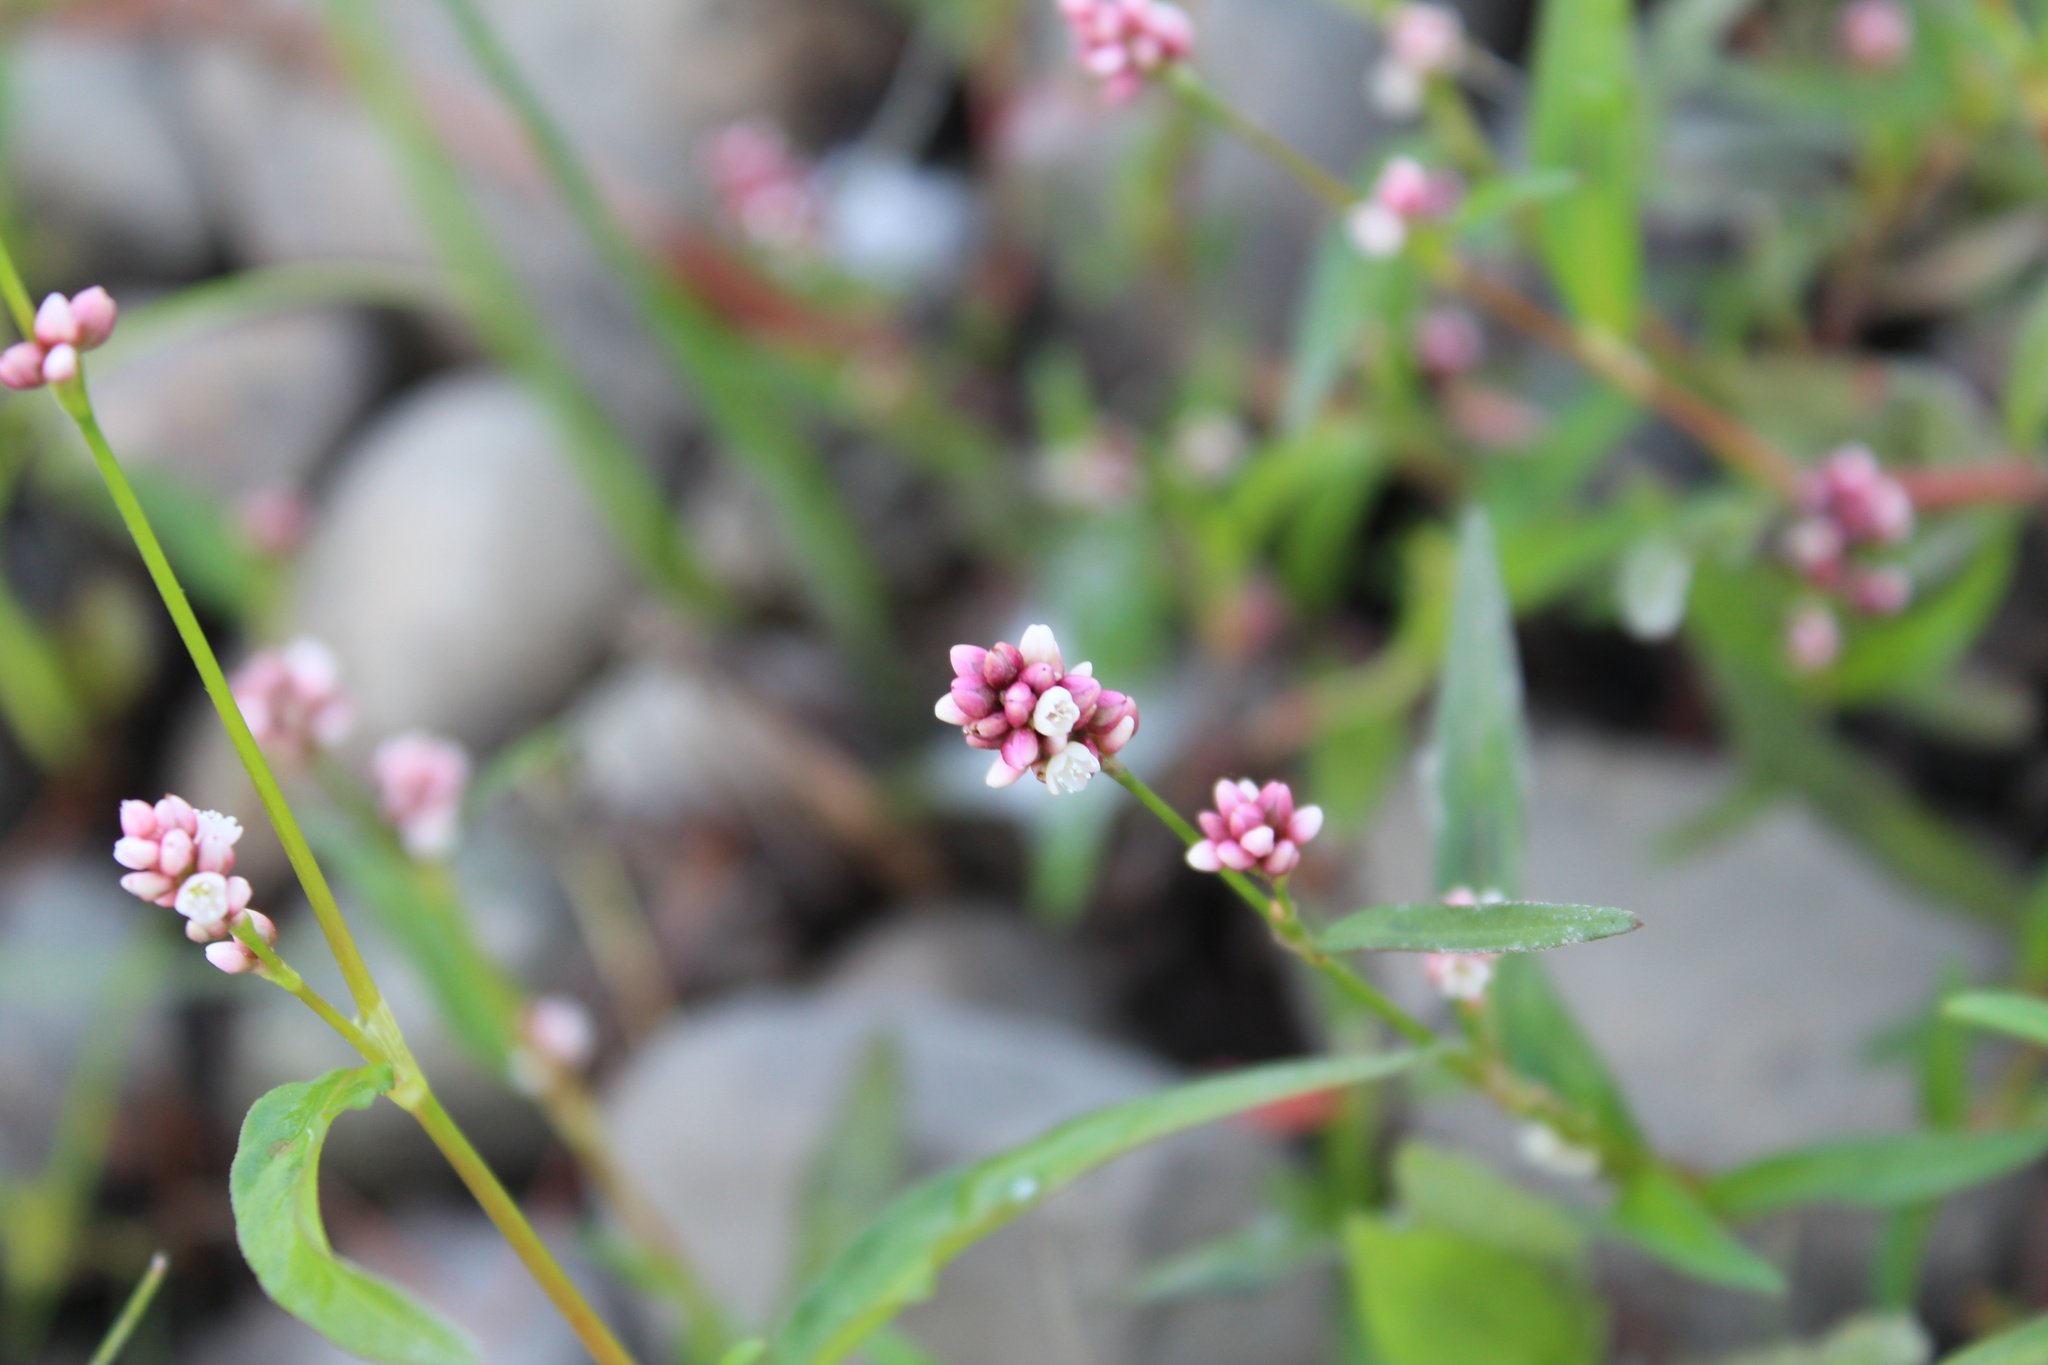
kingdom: Plantae
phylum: Tracheophyta
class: Magnoliopsida
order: Caryophyllales
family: Polygonaceae
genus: Persicaria
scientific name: Persicaria maculosa
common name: Redshank
